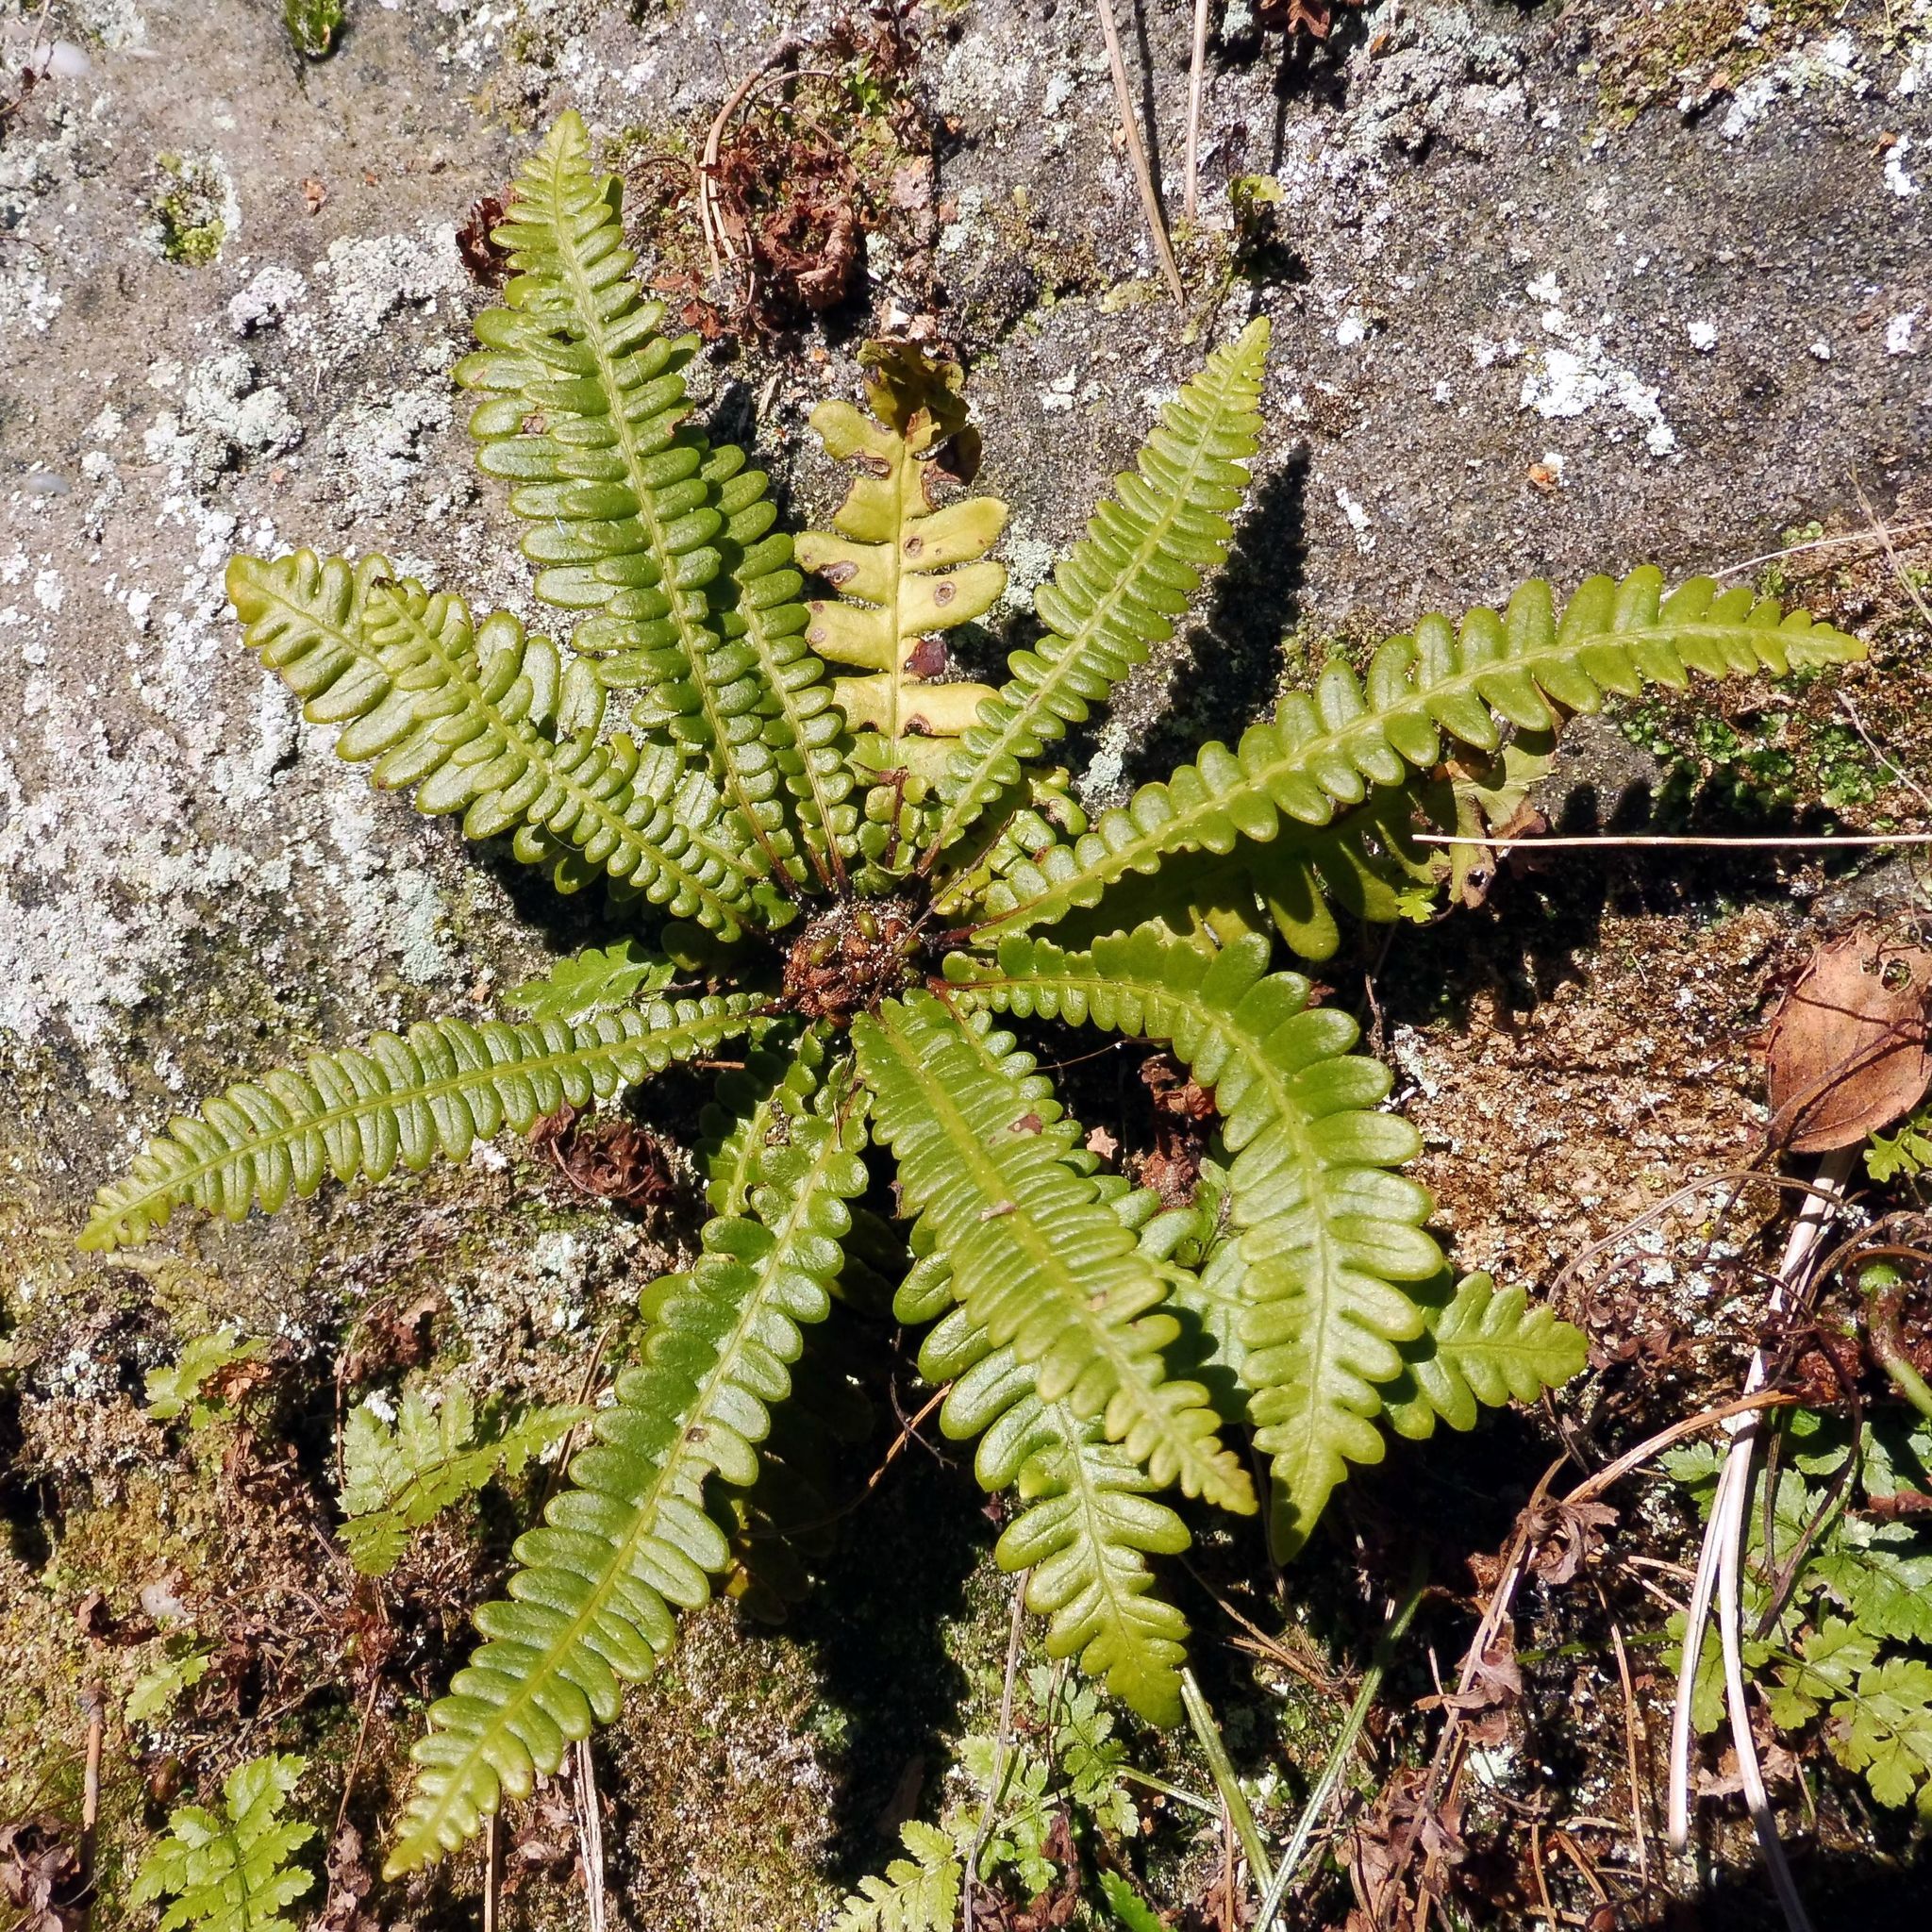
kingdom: Plantae
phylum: Tracheophyta
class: Polypodiopsida
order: Polypodiales
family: Blechnaceae
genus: Struthiopteris
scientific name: Struthiopteris spicant
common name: Deer fern
